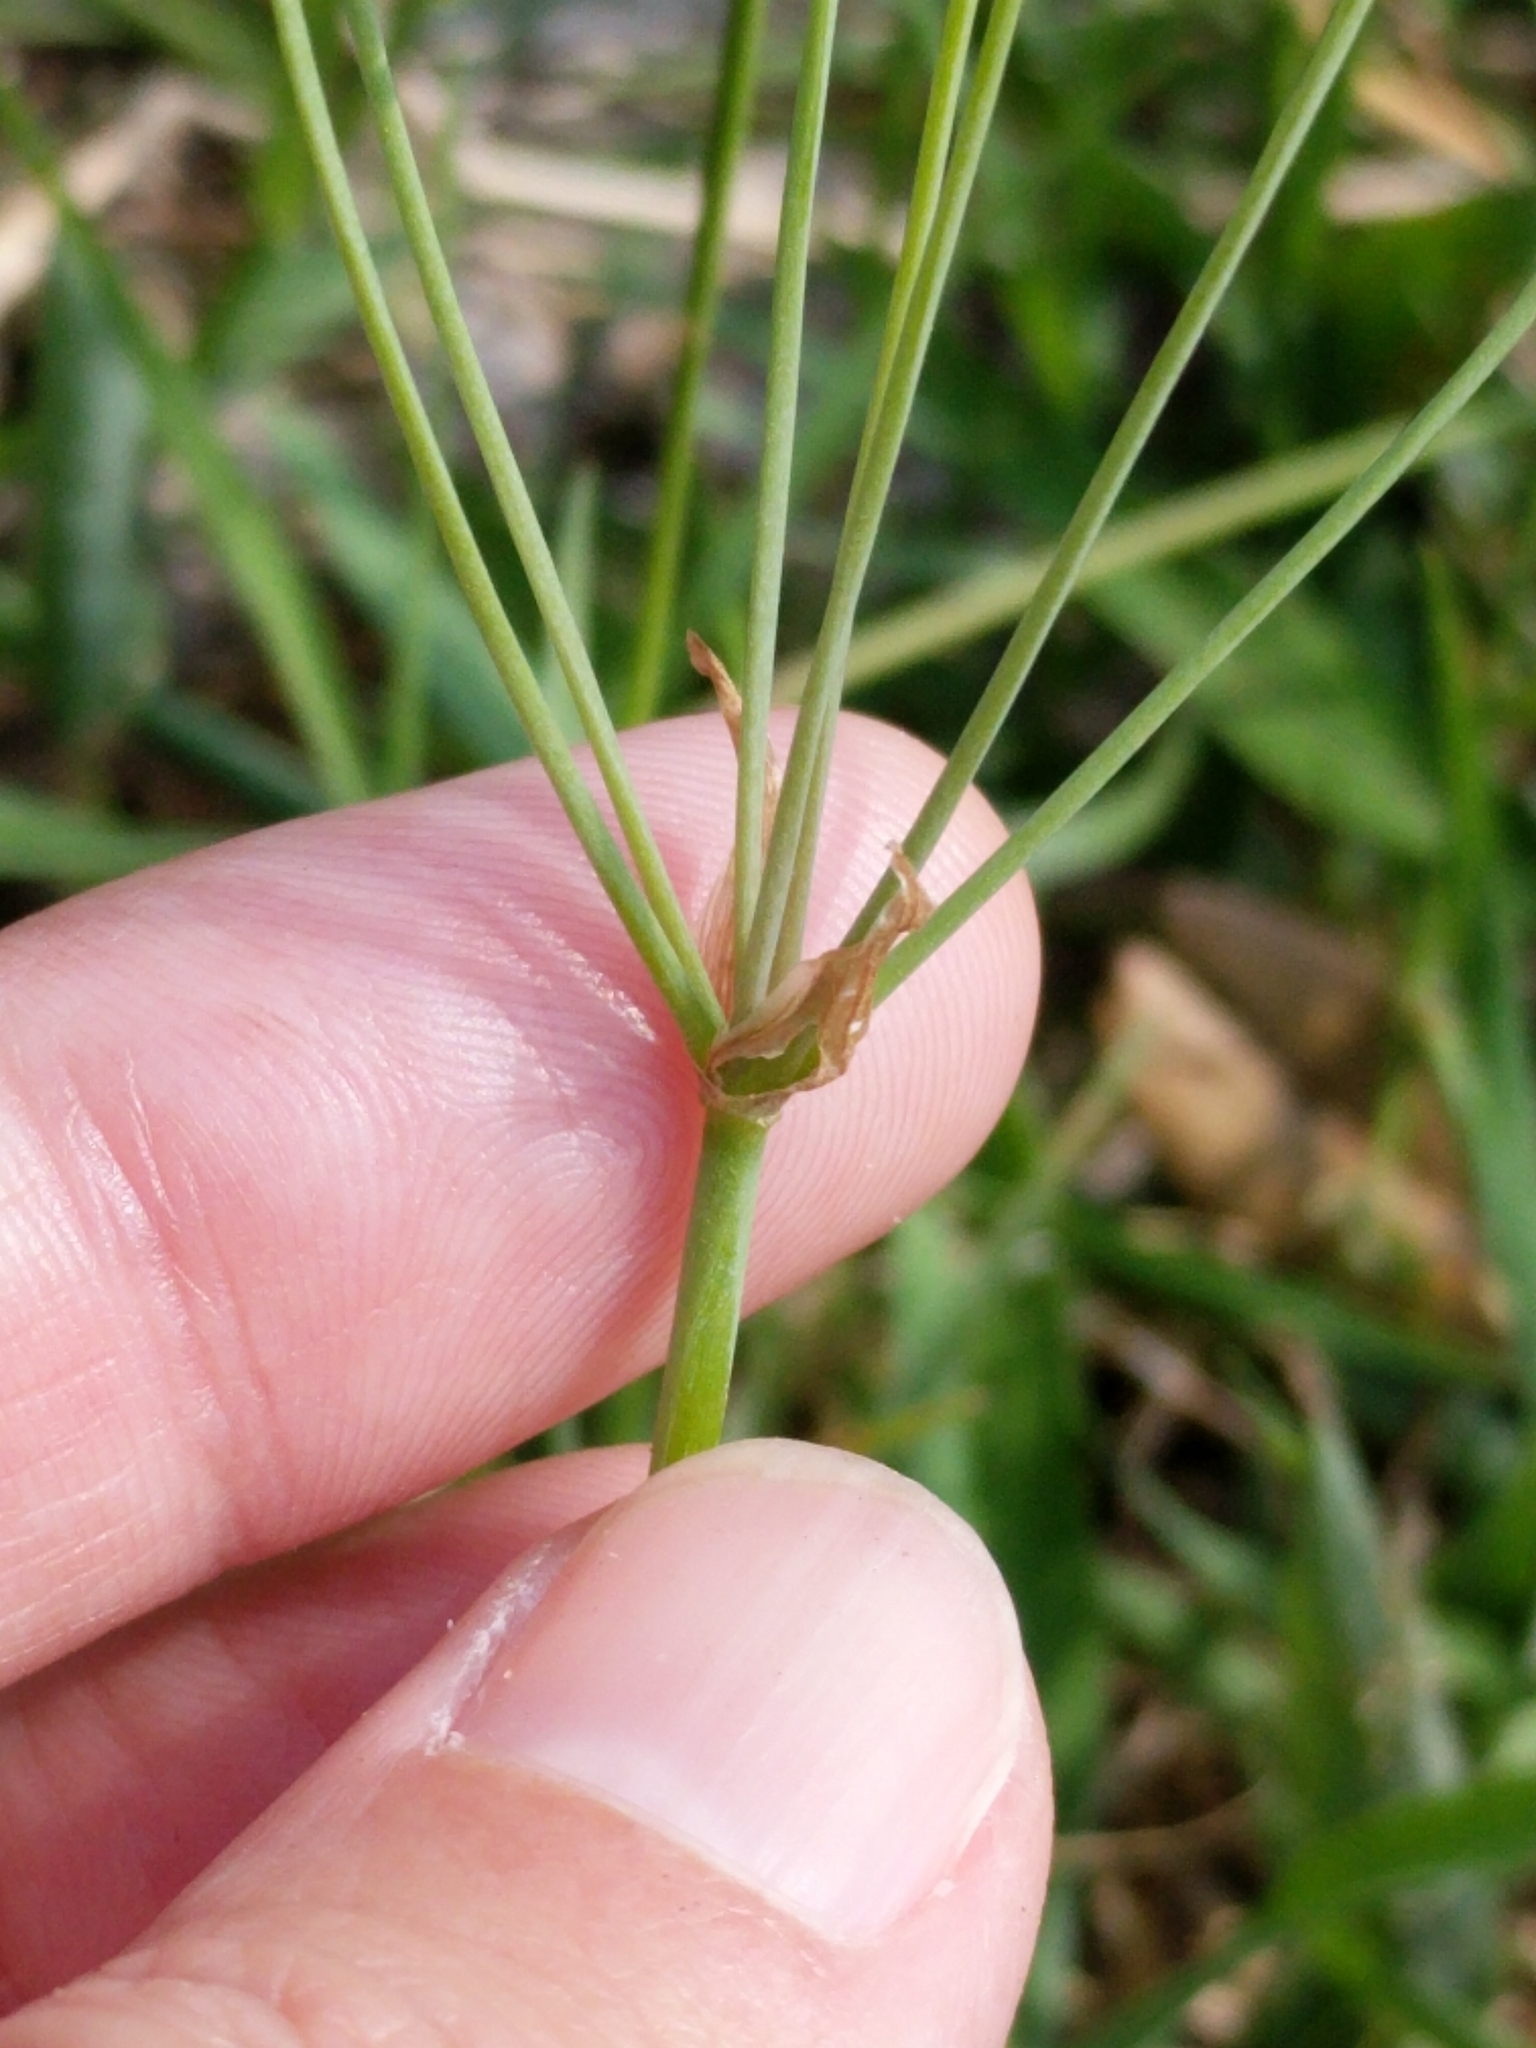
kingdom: Plantae
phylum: Tracheophyta
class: Liliopsida
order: Asparagales
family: Amaryllidaceae
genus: Nothoscordum
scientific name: Nothoscordum bivalve
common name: Crow-poison
